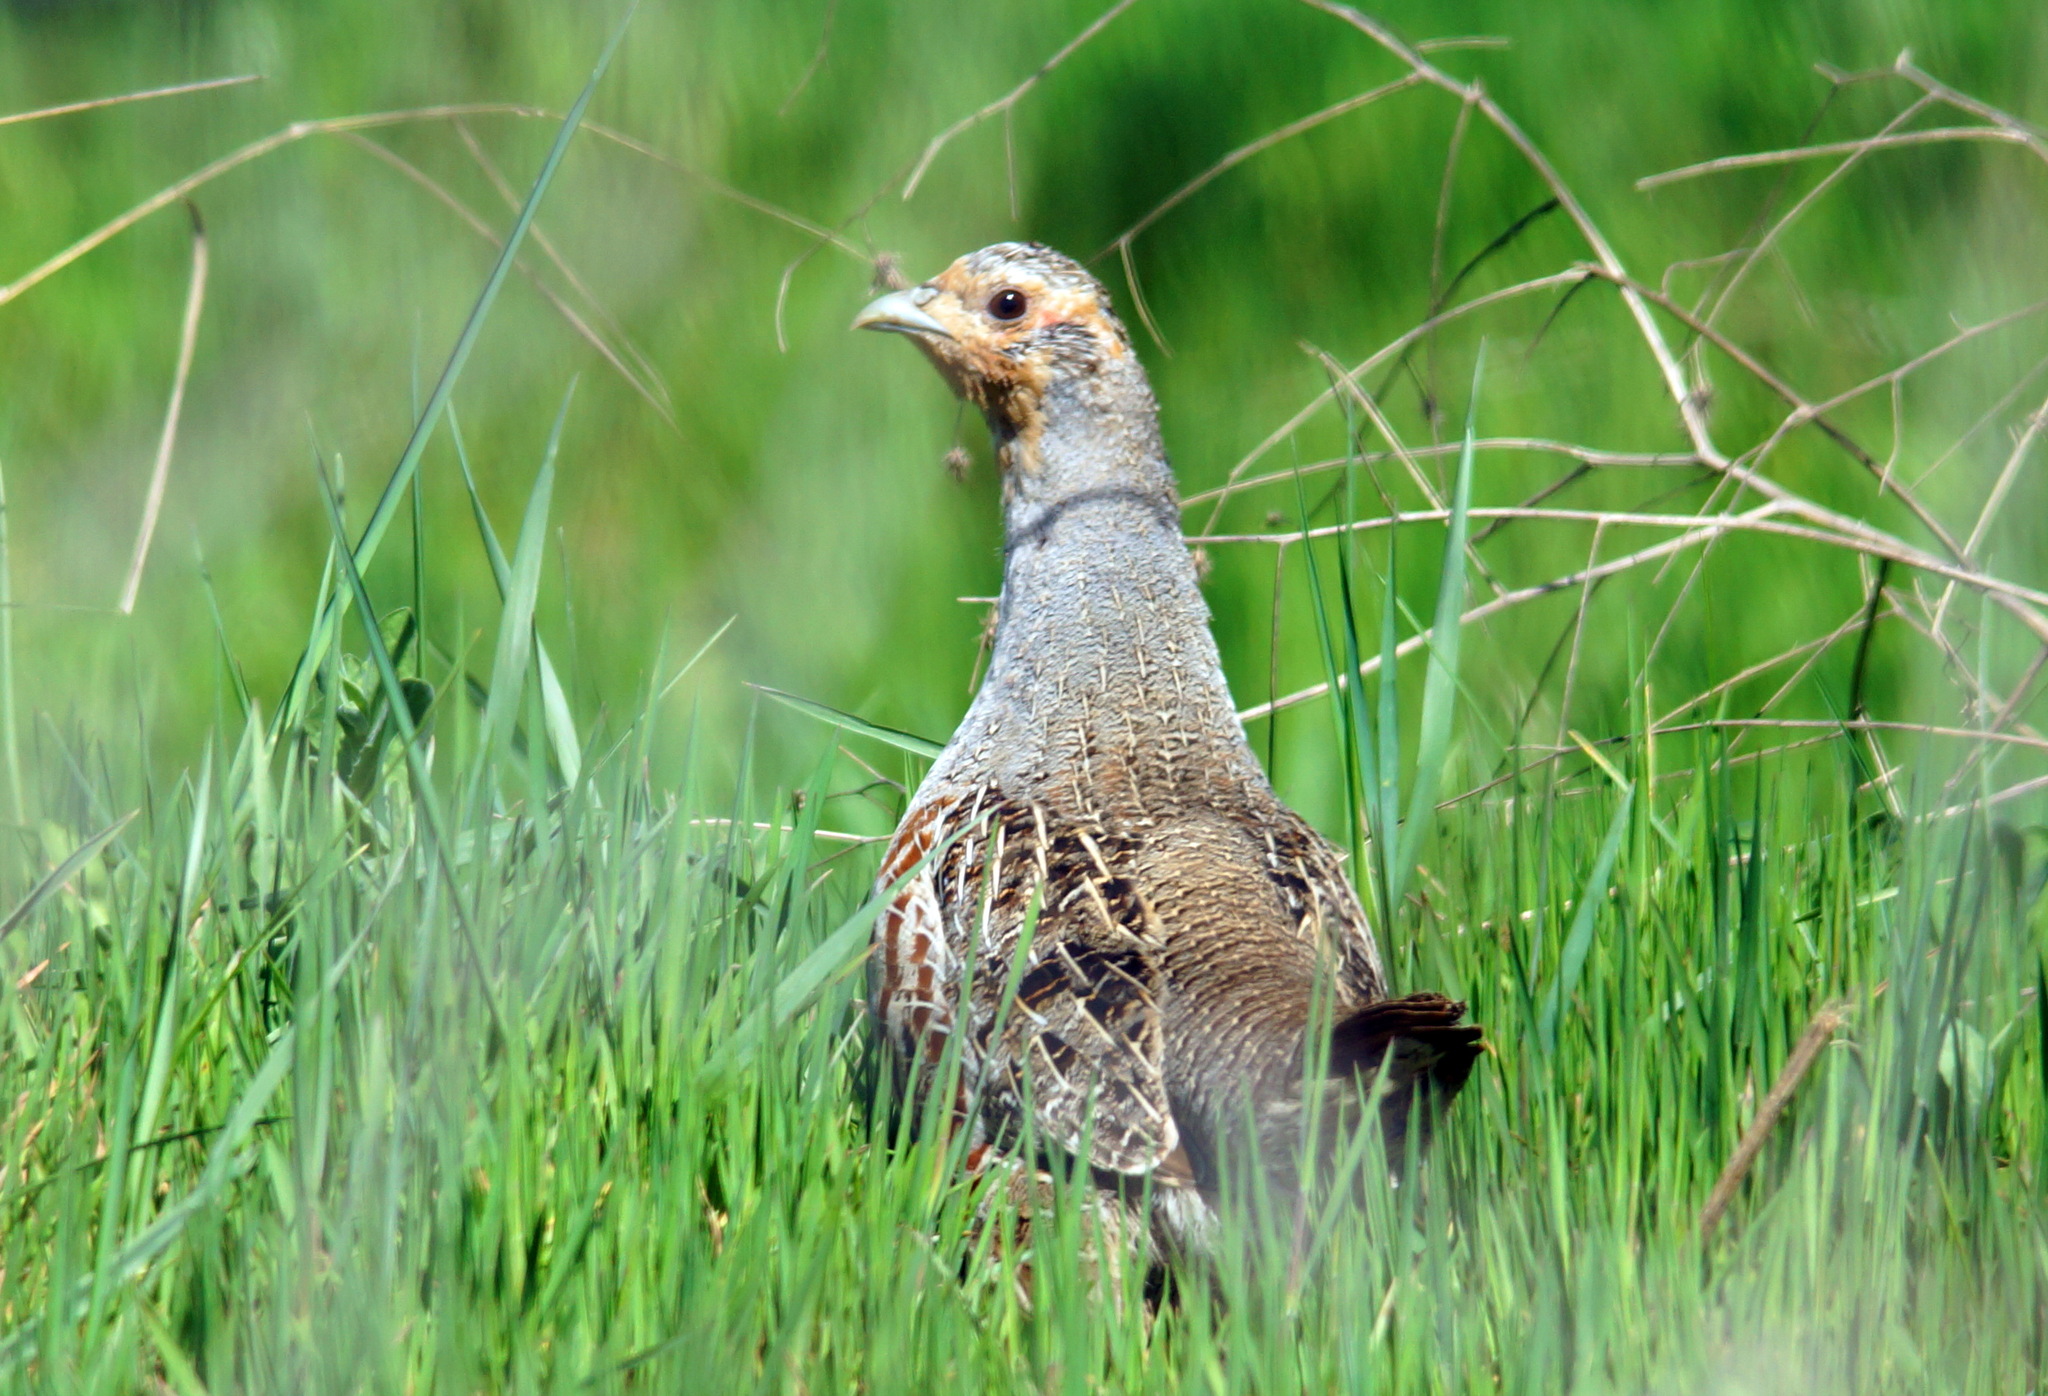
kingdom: Animalia
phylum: Chordata
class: Aves
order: Galliformes
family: Phasianidae
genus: Perdix
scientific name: Perdix perdix
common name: Grey partridge
